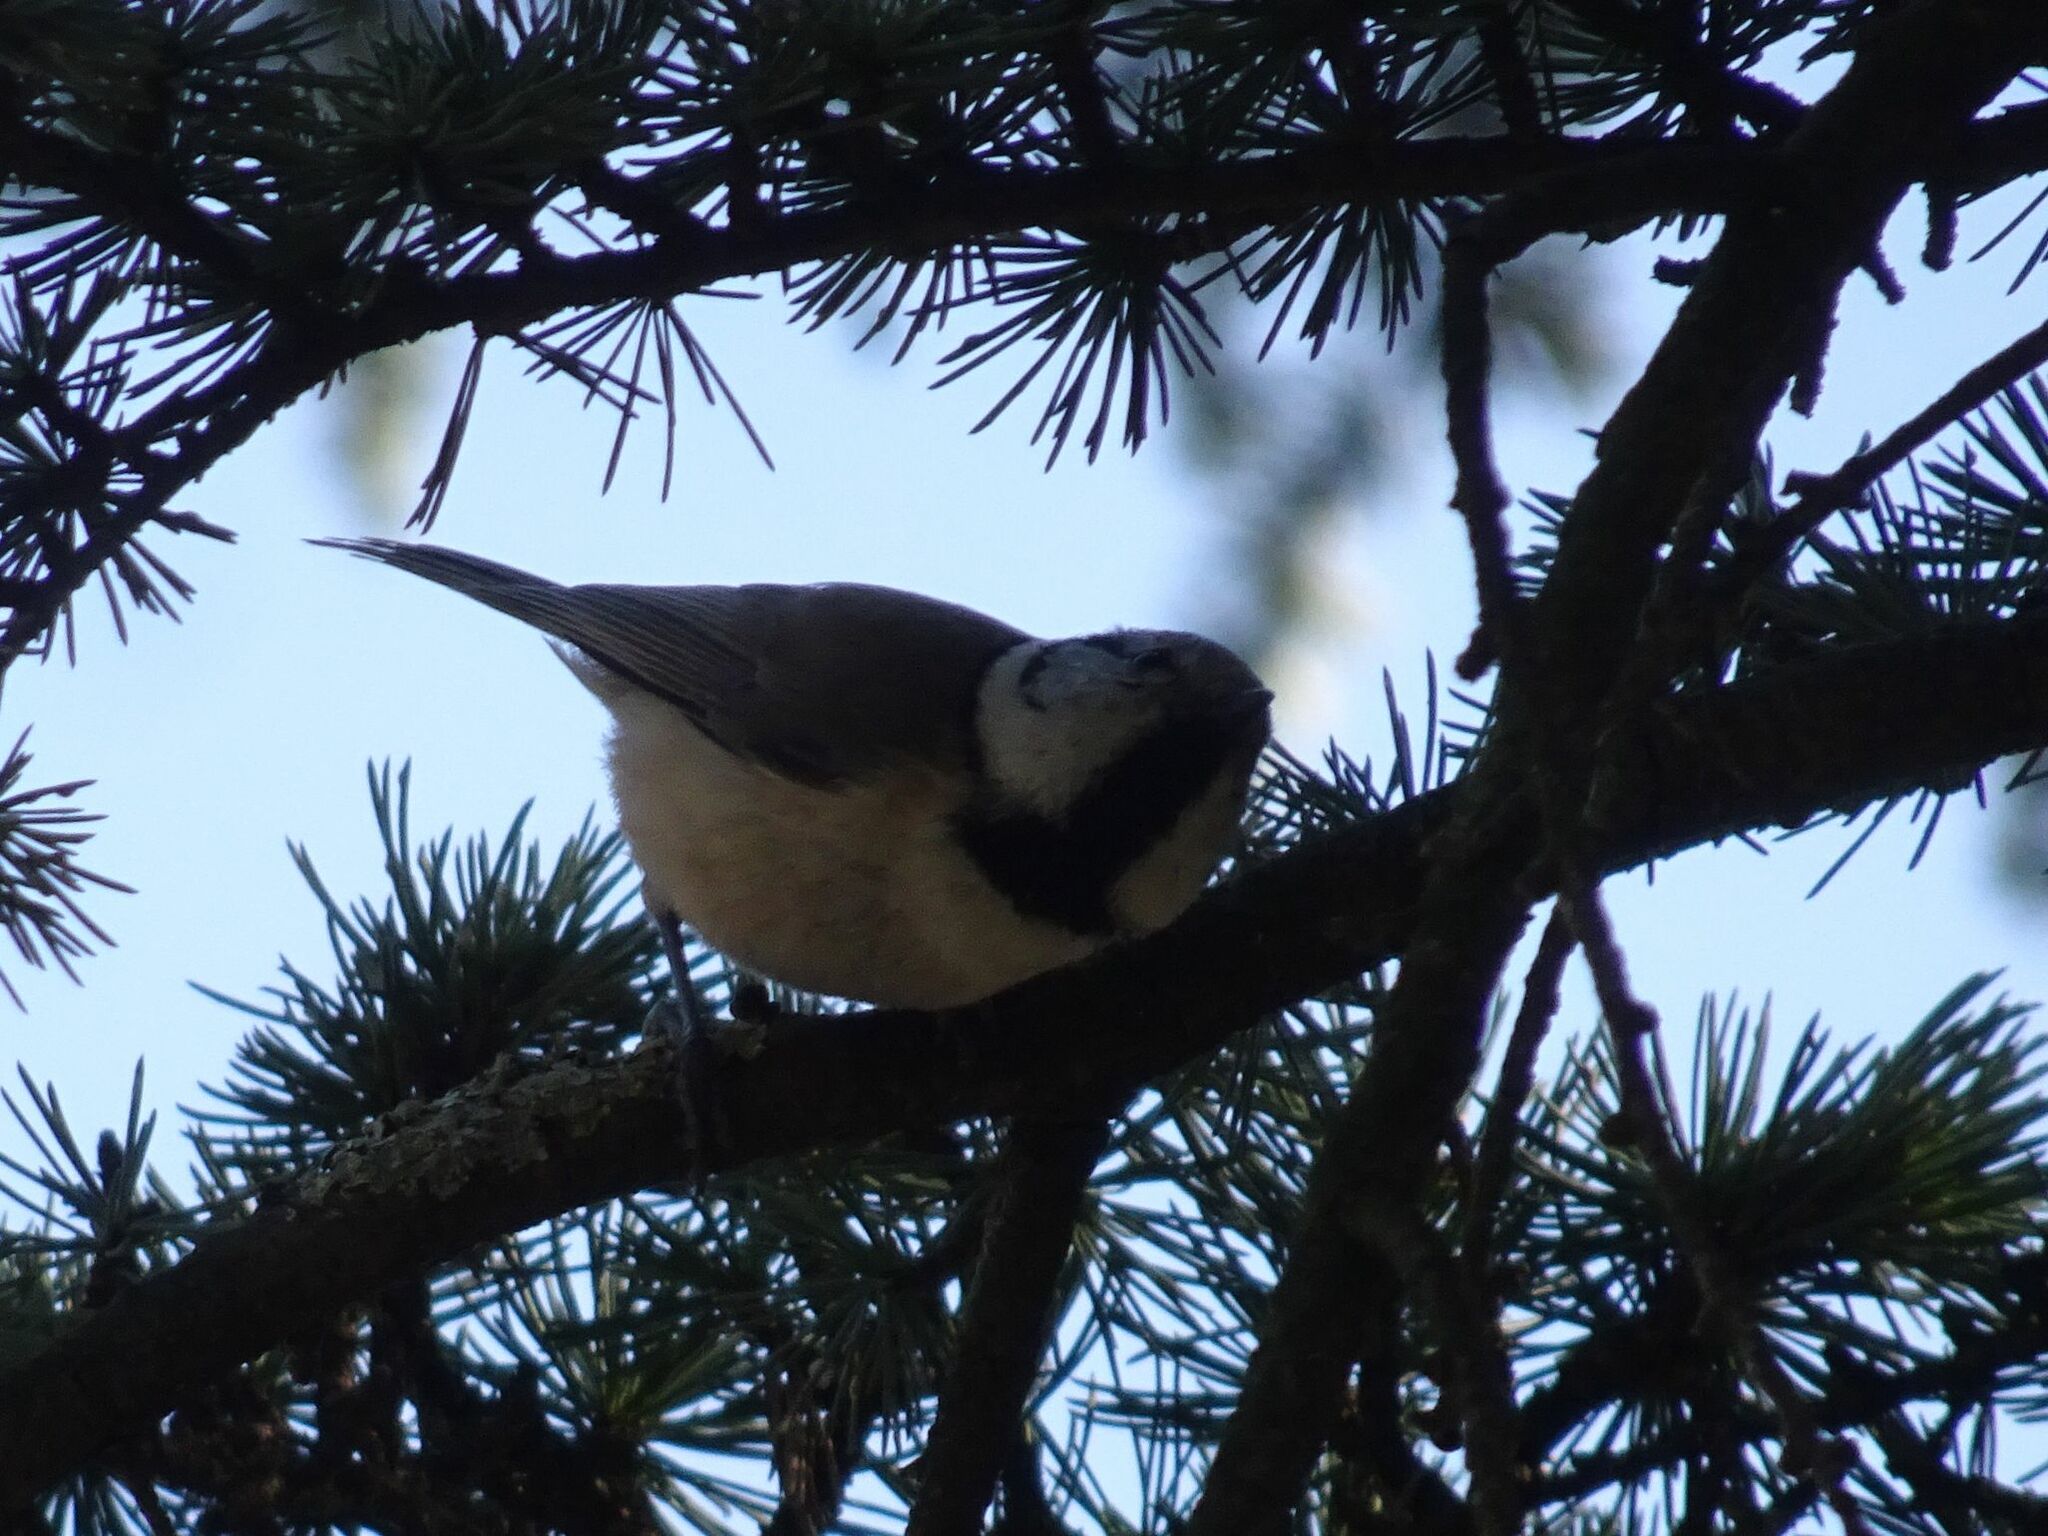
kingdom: Animalia
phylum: Chordata
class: Aves
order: Passeriformes
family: Paridae
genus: Lophophanes
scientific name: Lophophanes cristatus
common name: European crested tit
